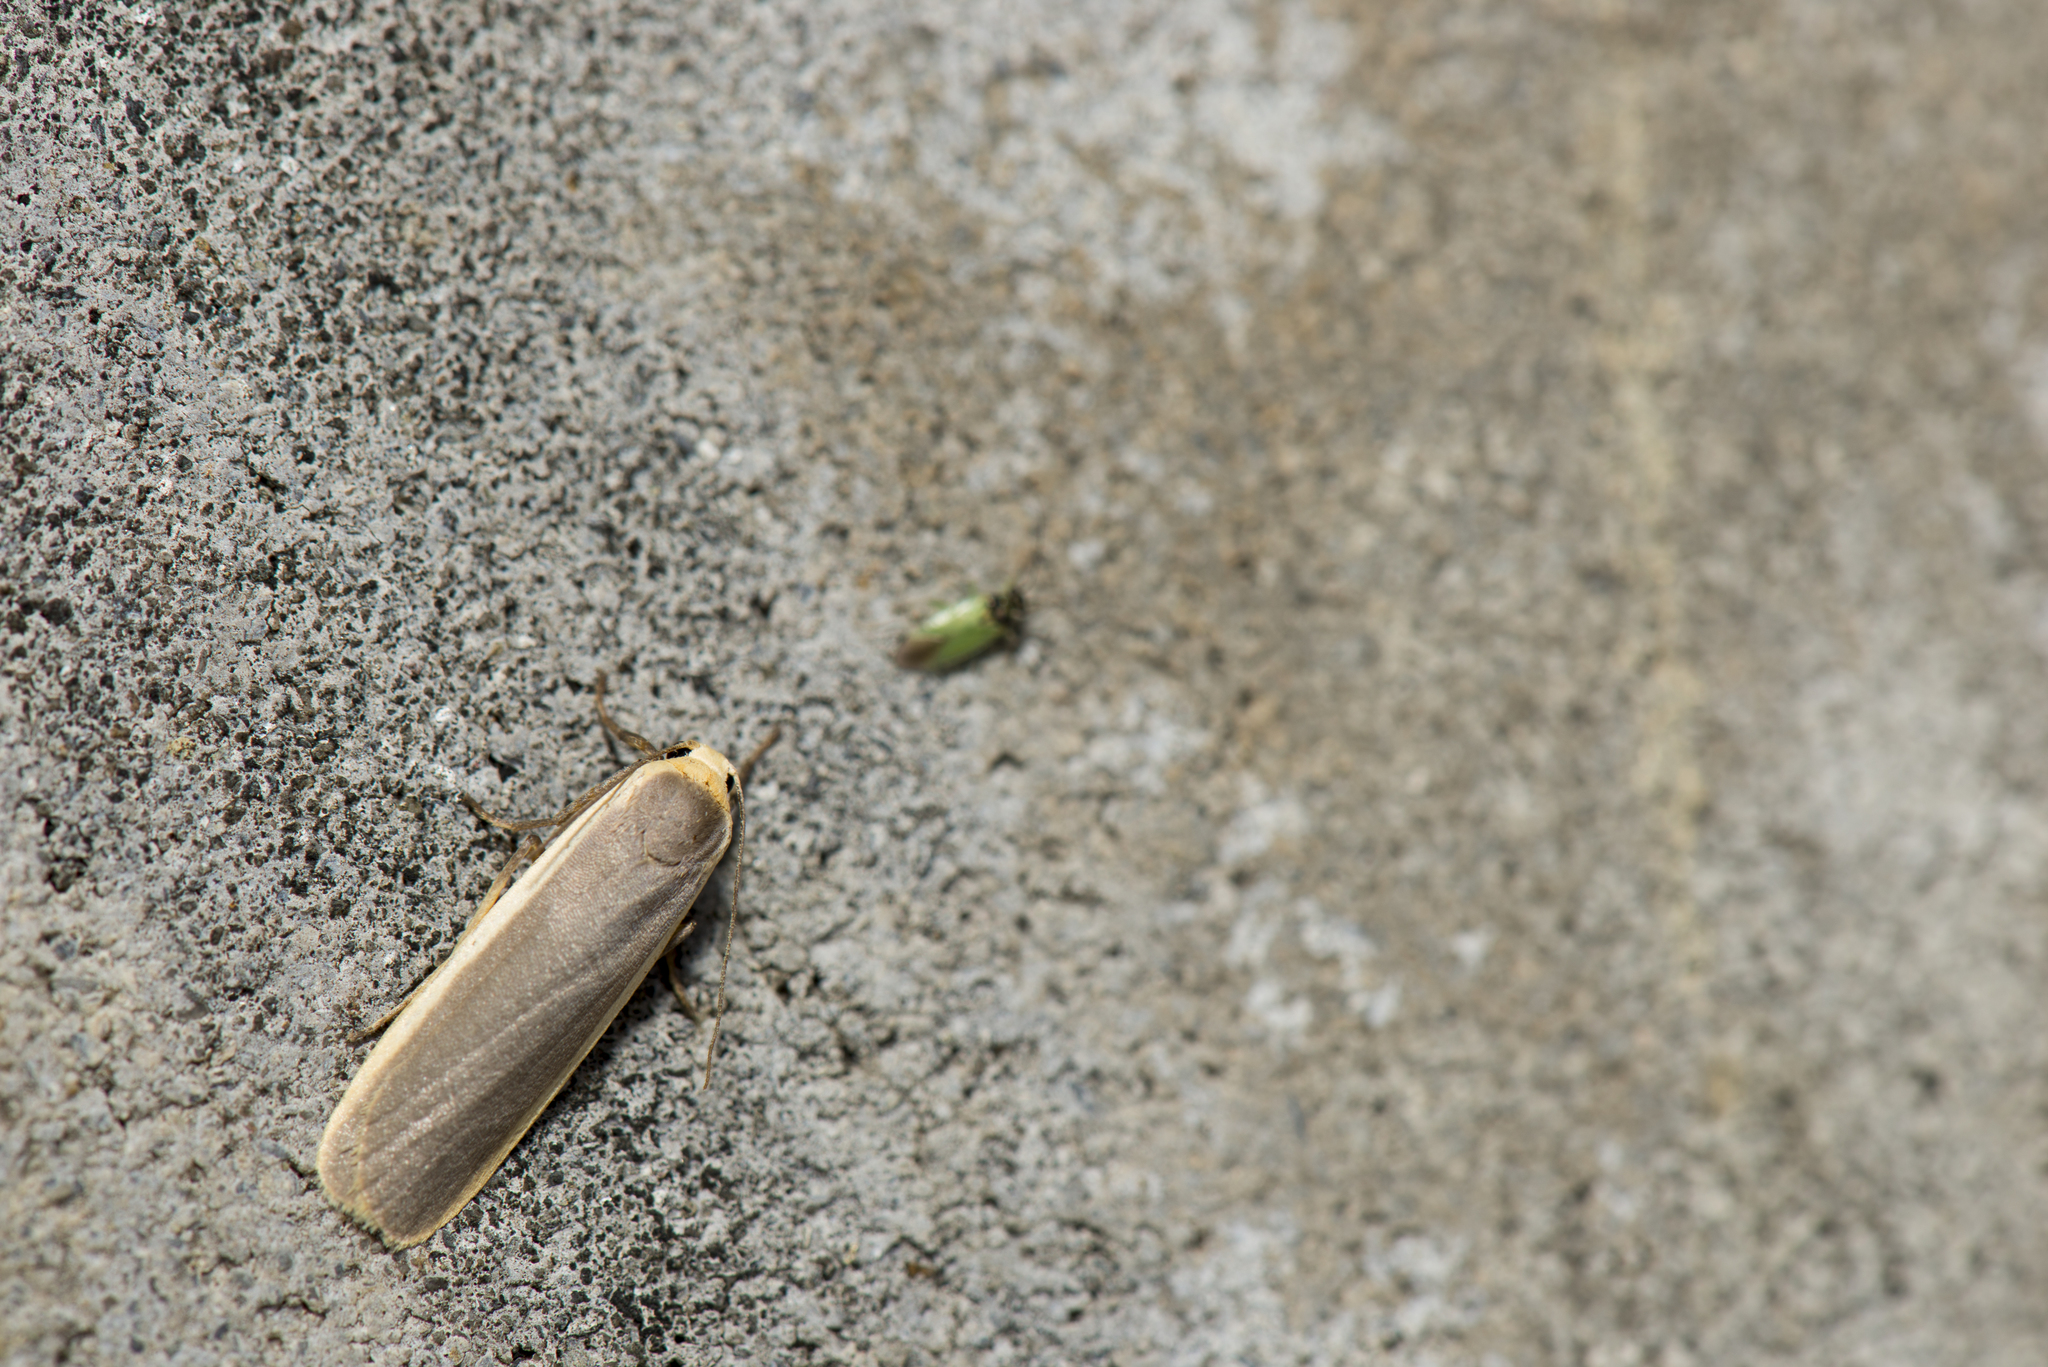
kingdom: Animalia
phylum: Arthropoda
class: Insecta
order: Lepidoptera
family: Erebidae
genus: Brunia
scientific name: Brunia antica
